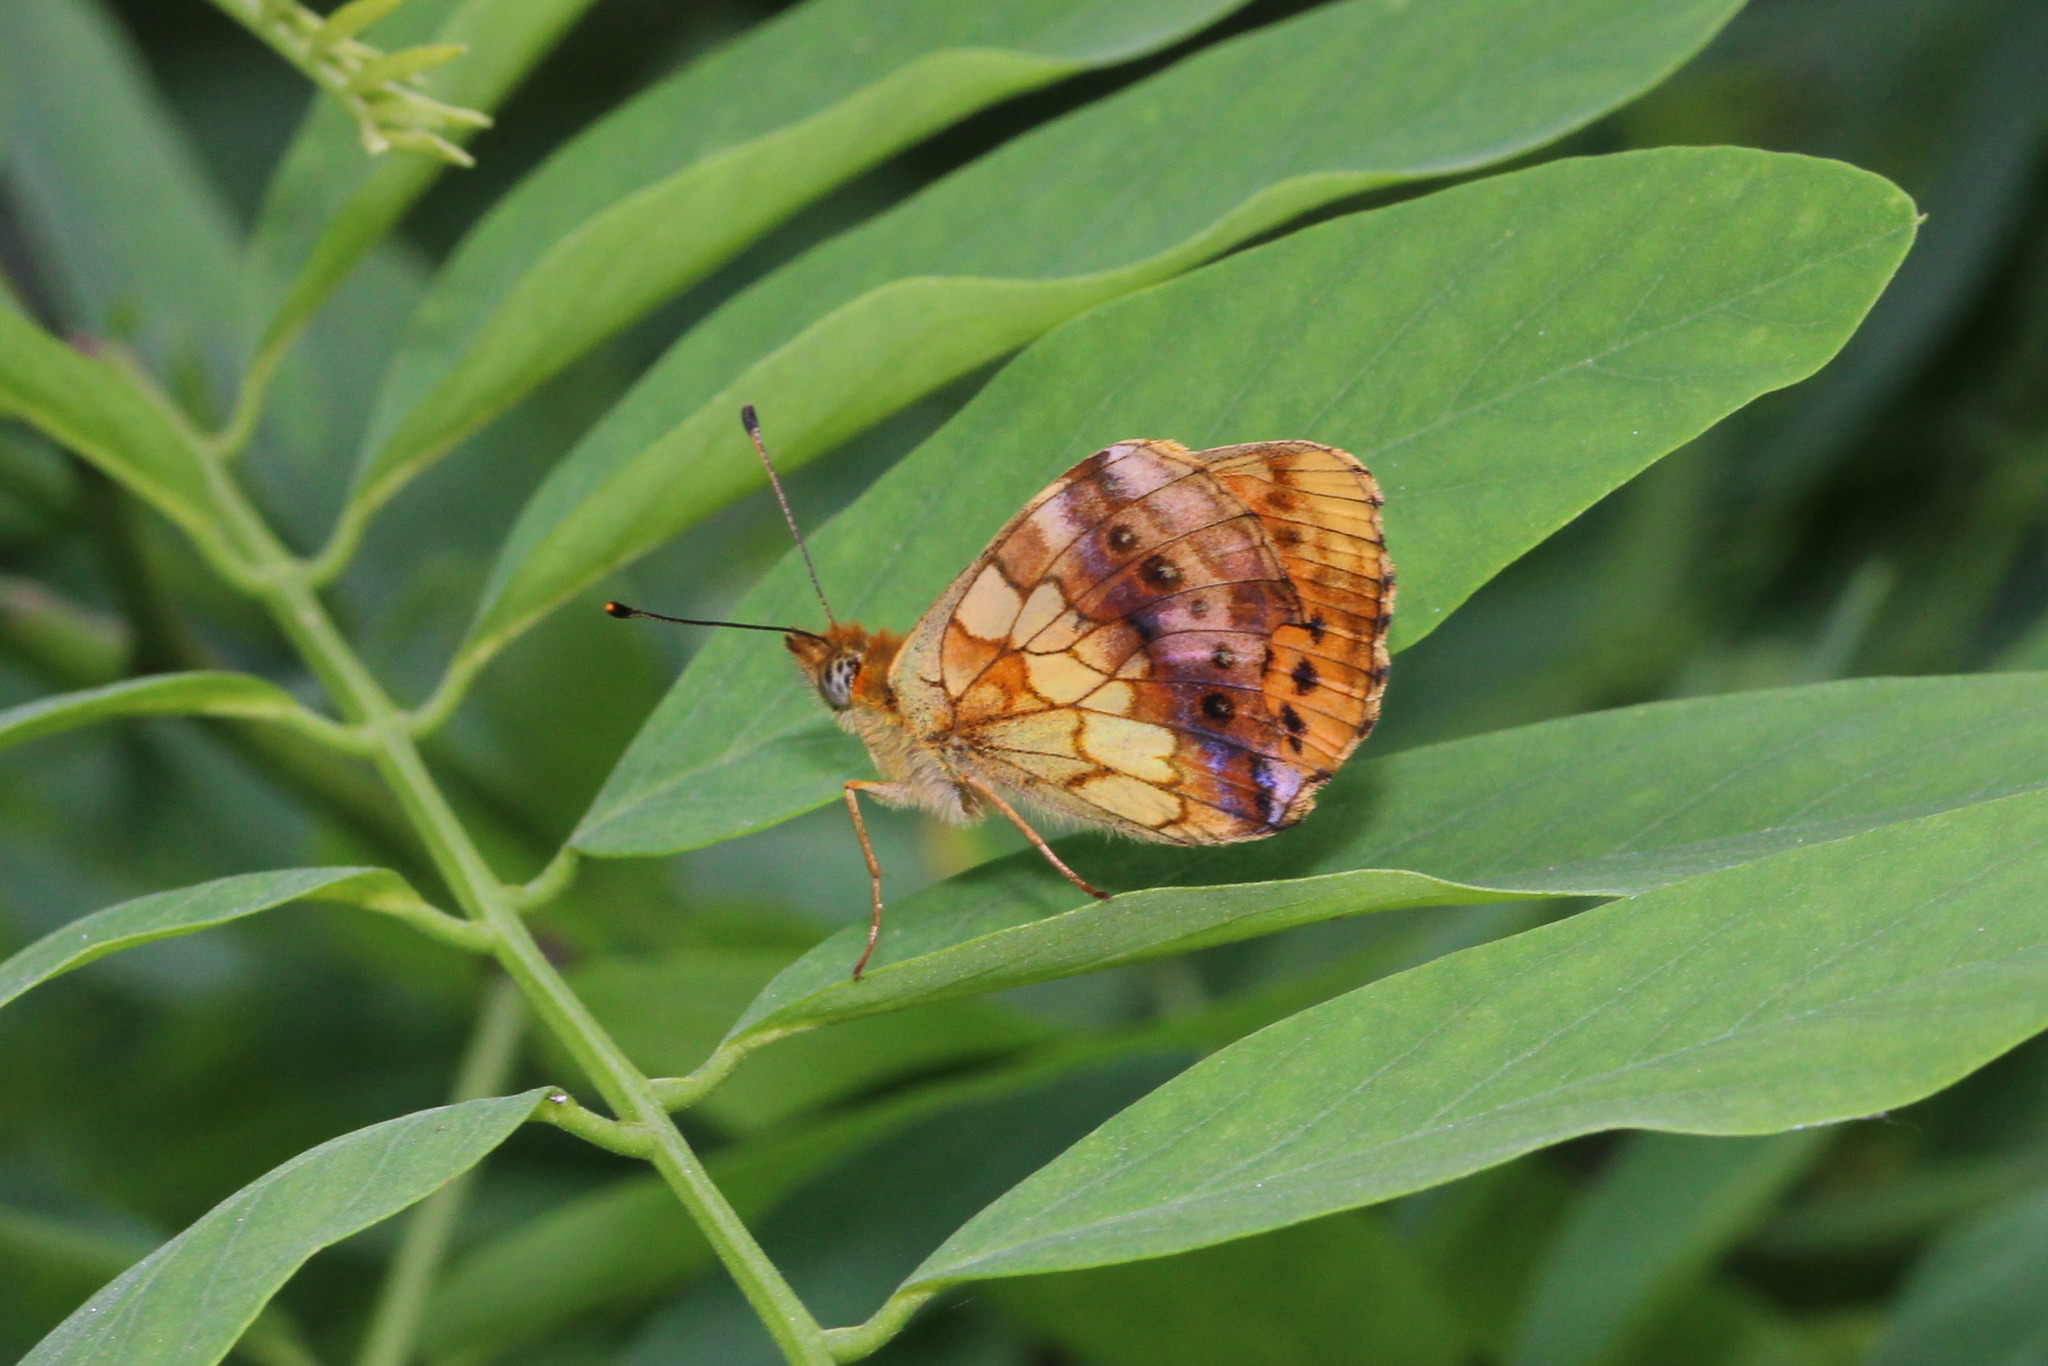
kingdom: Animalia
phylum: Arthropoda
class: Insecta
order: Lepidoptera
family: Nymphalidae
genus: Brenthis
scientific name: Brenthis daphne
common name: Marbled fritillary
